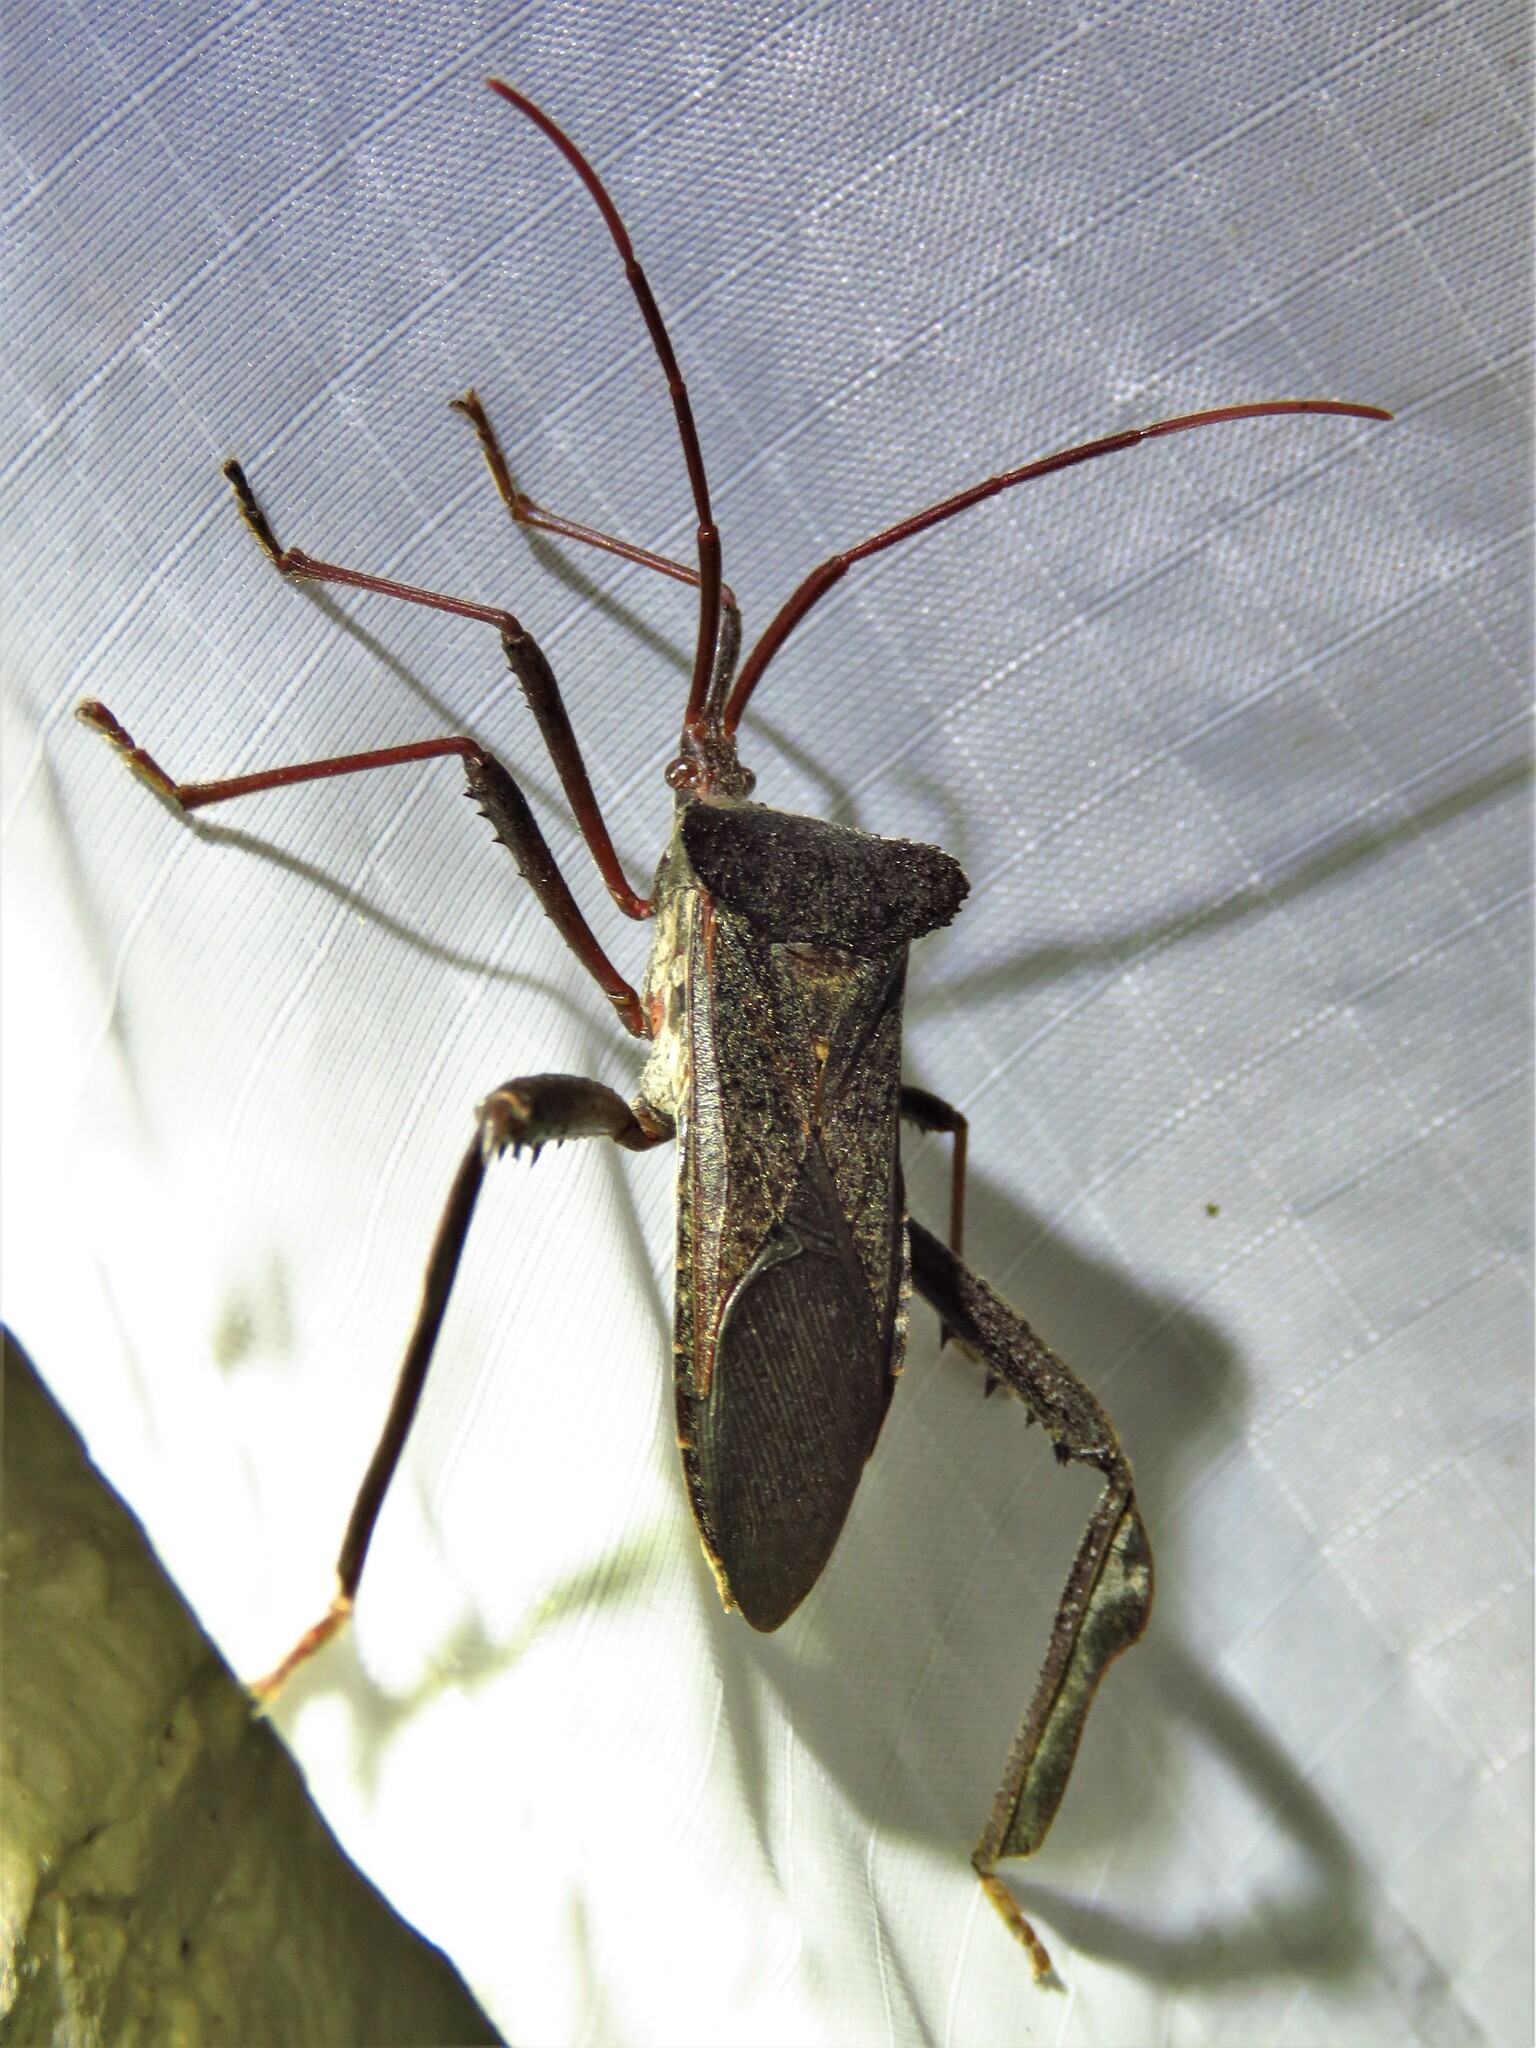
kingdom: Animalia
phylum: Arthropoda
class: Insecta
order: Hemiptera
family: Coreidae
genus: Acanthocephala
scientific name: Acanthocephala declivis
